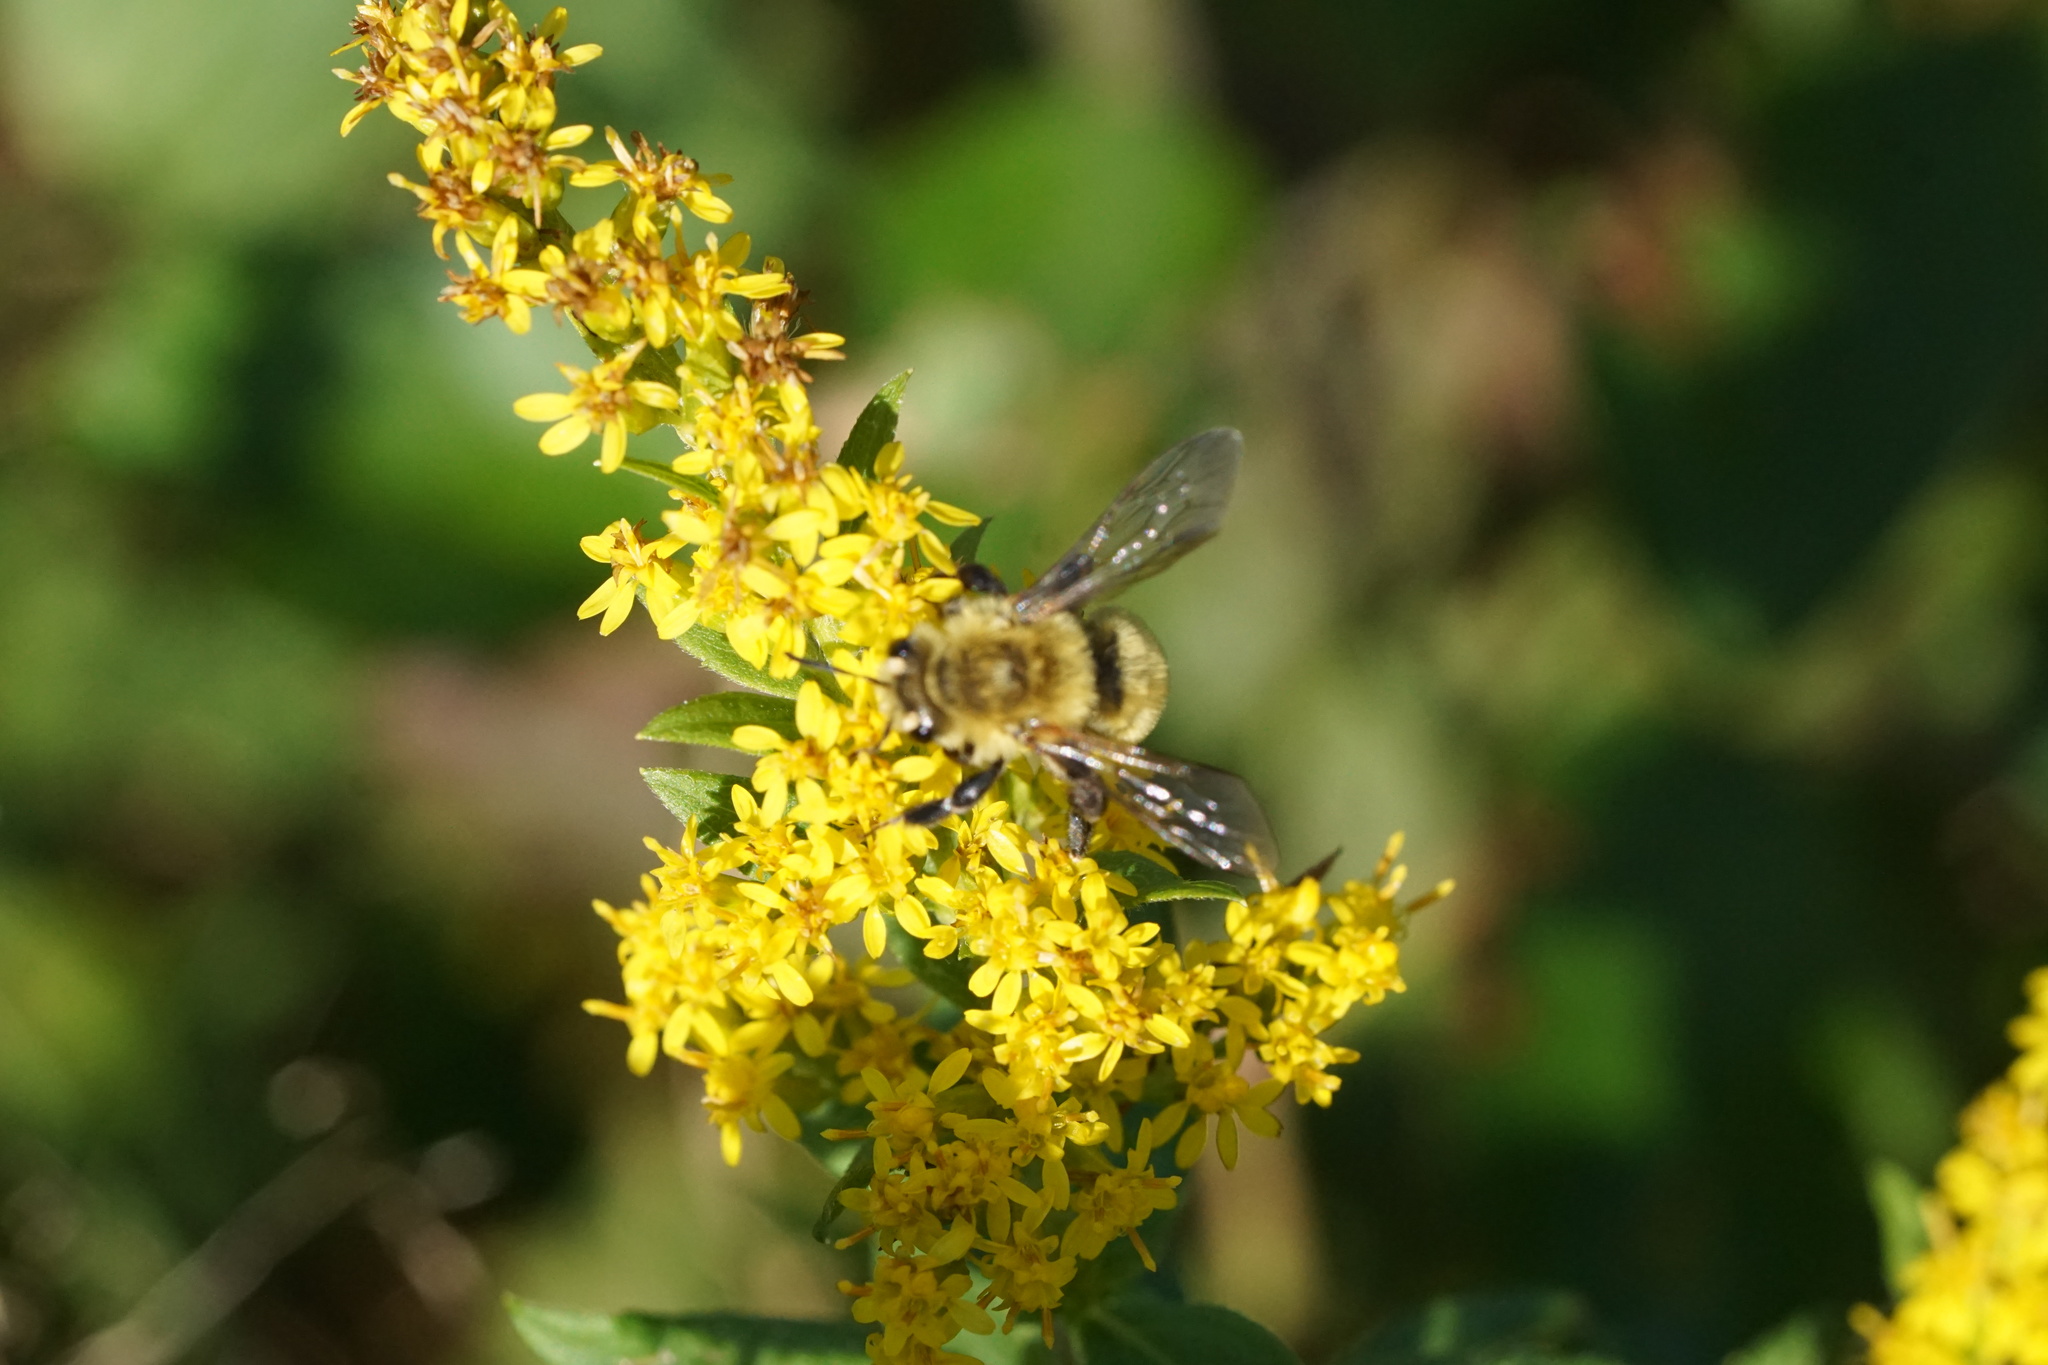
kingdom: Animalia
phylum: Arthropoda
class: Insecta
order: Hymenoptera
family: Andrenidae
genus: Andrena
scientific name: Andrena hirticincta
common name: Hairy-banded mining bee
